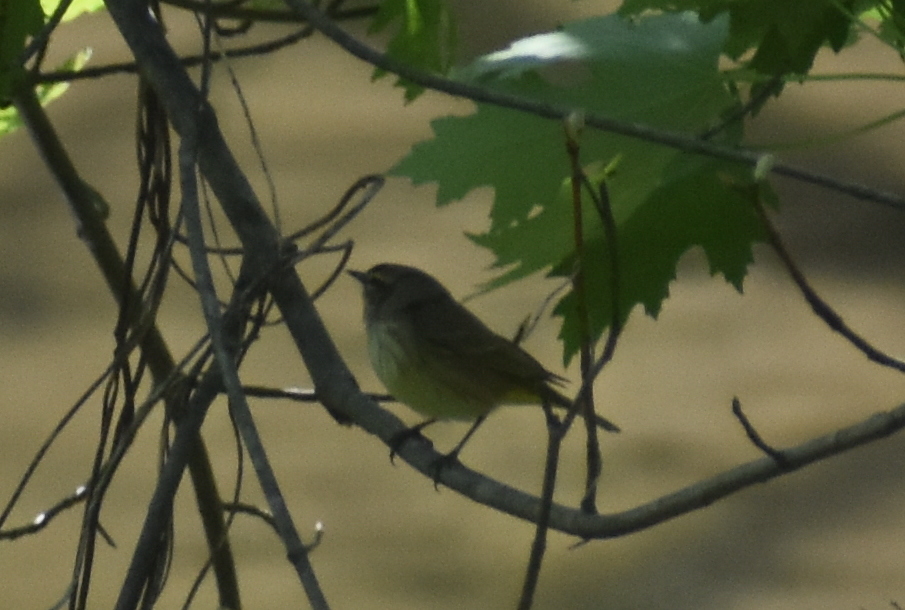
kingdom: Animalia
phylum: Chordata
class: Aves
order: Passeriformes
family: Parulidae
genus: Setophaga
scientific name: Setophaga palmarum
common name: Palm warbler
